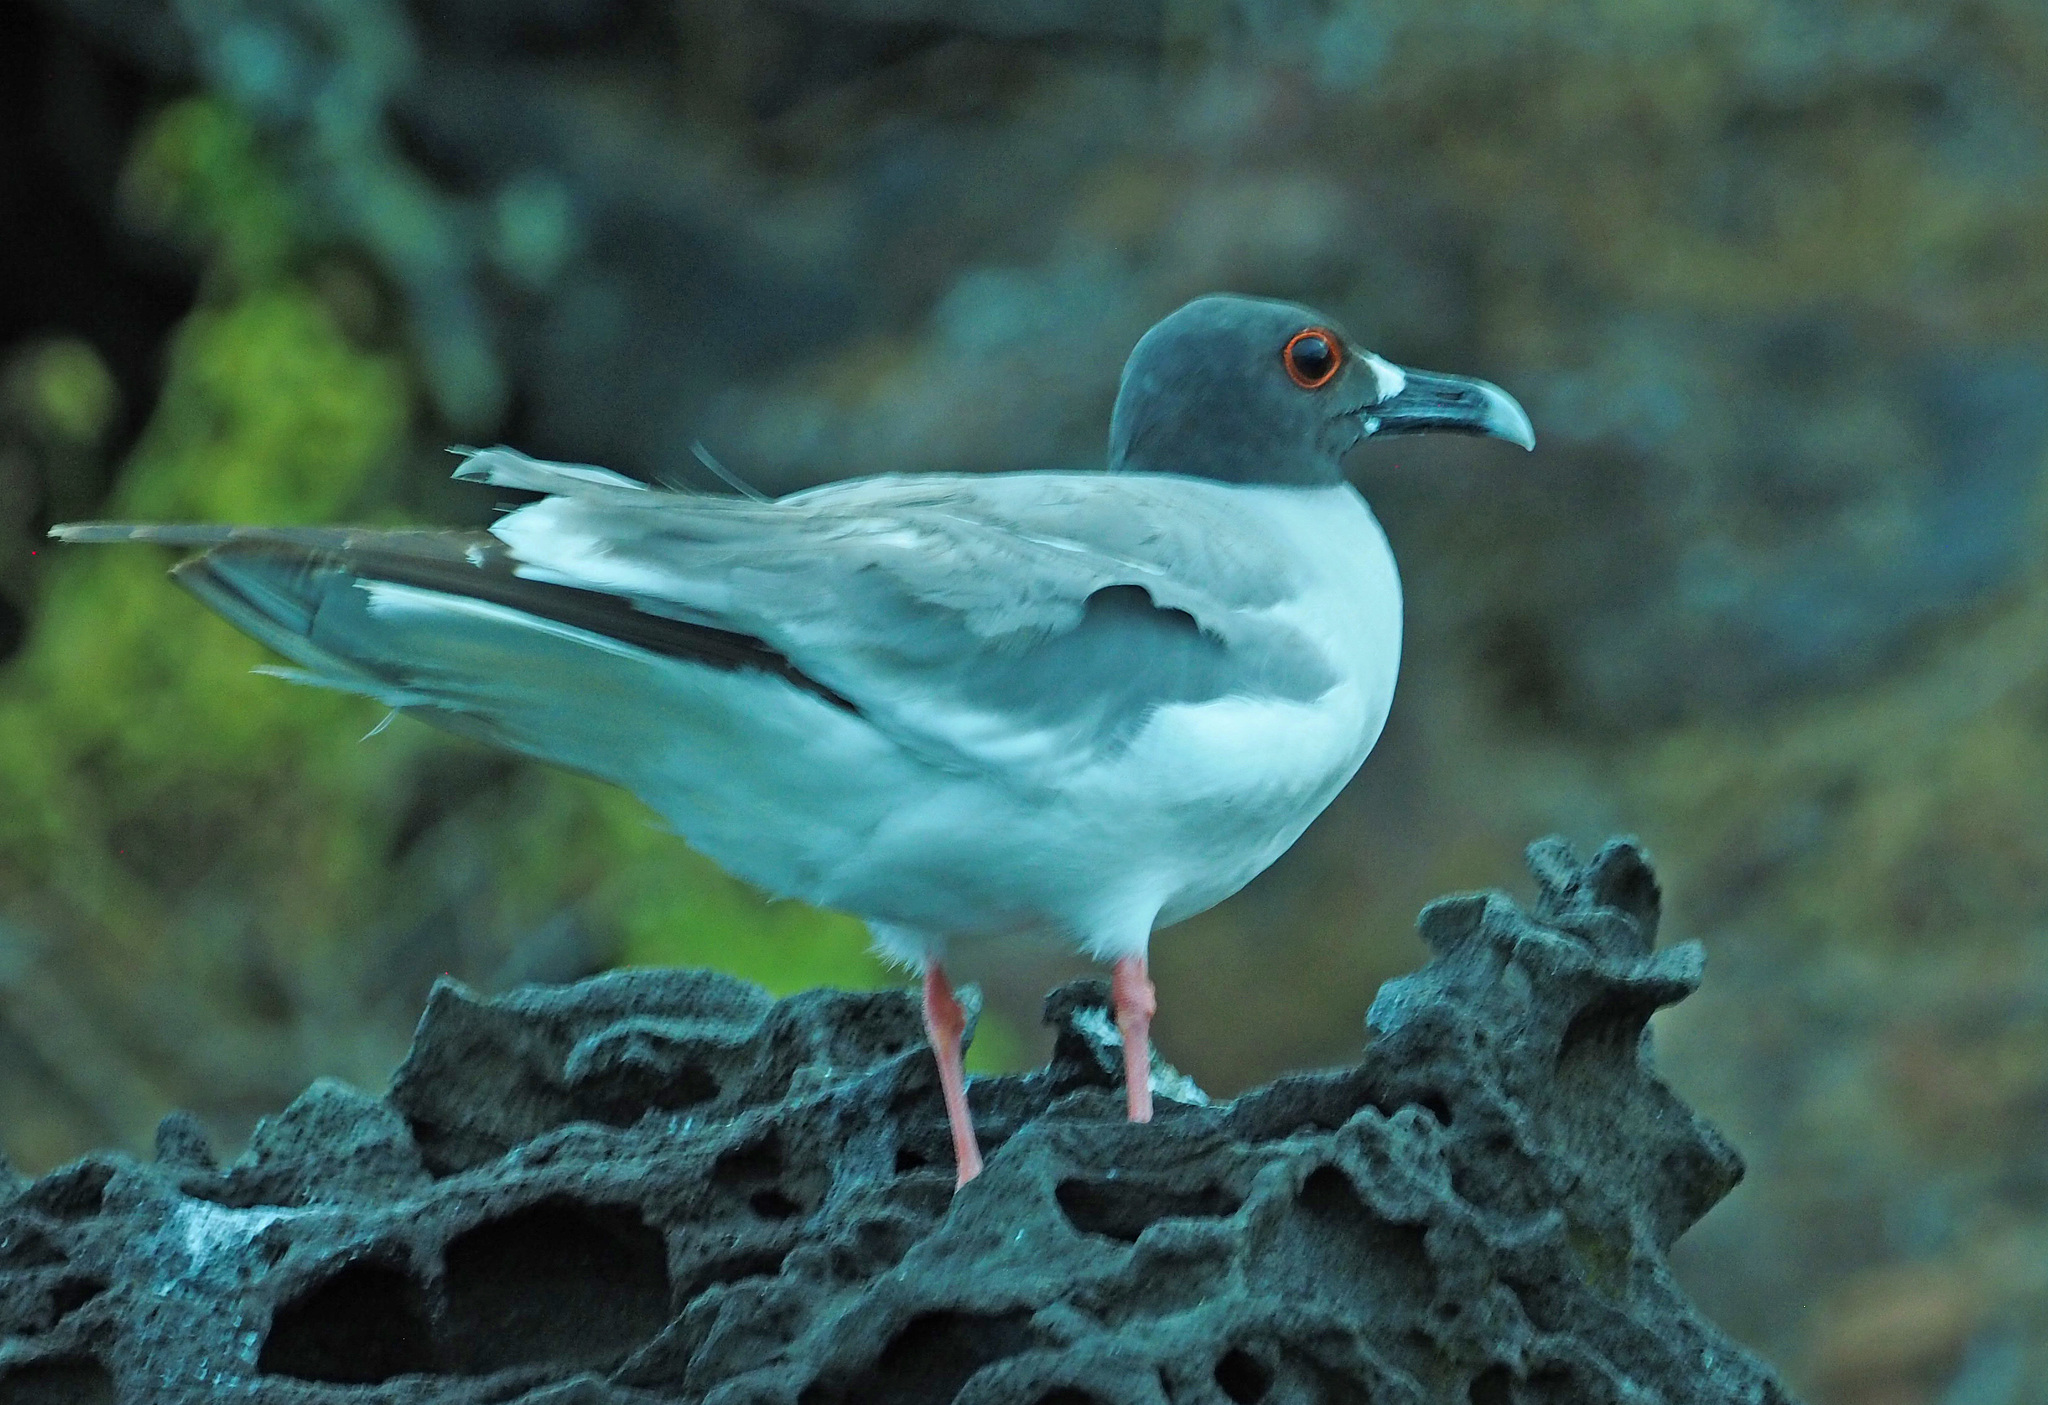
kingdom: Animalia
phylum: Chordata
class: Aves
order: Charadriiformes
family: Laridae
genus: Creagrus
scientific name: Creagrus furcatus
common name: Swallow-tailed gull
